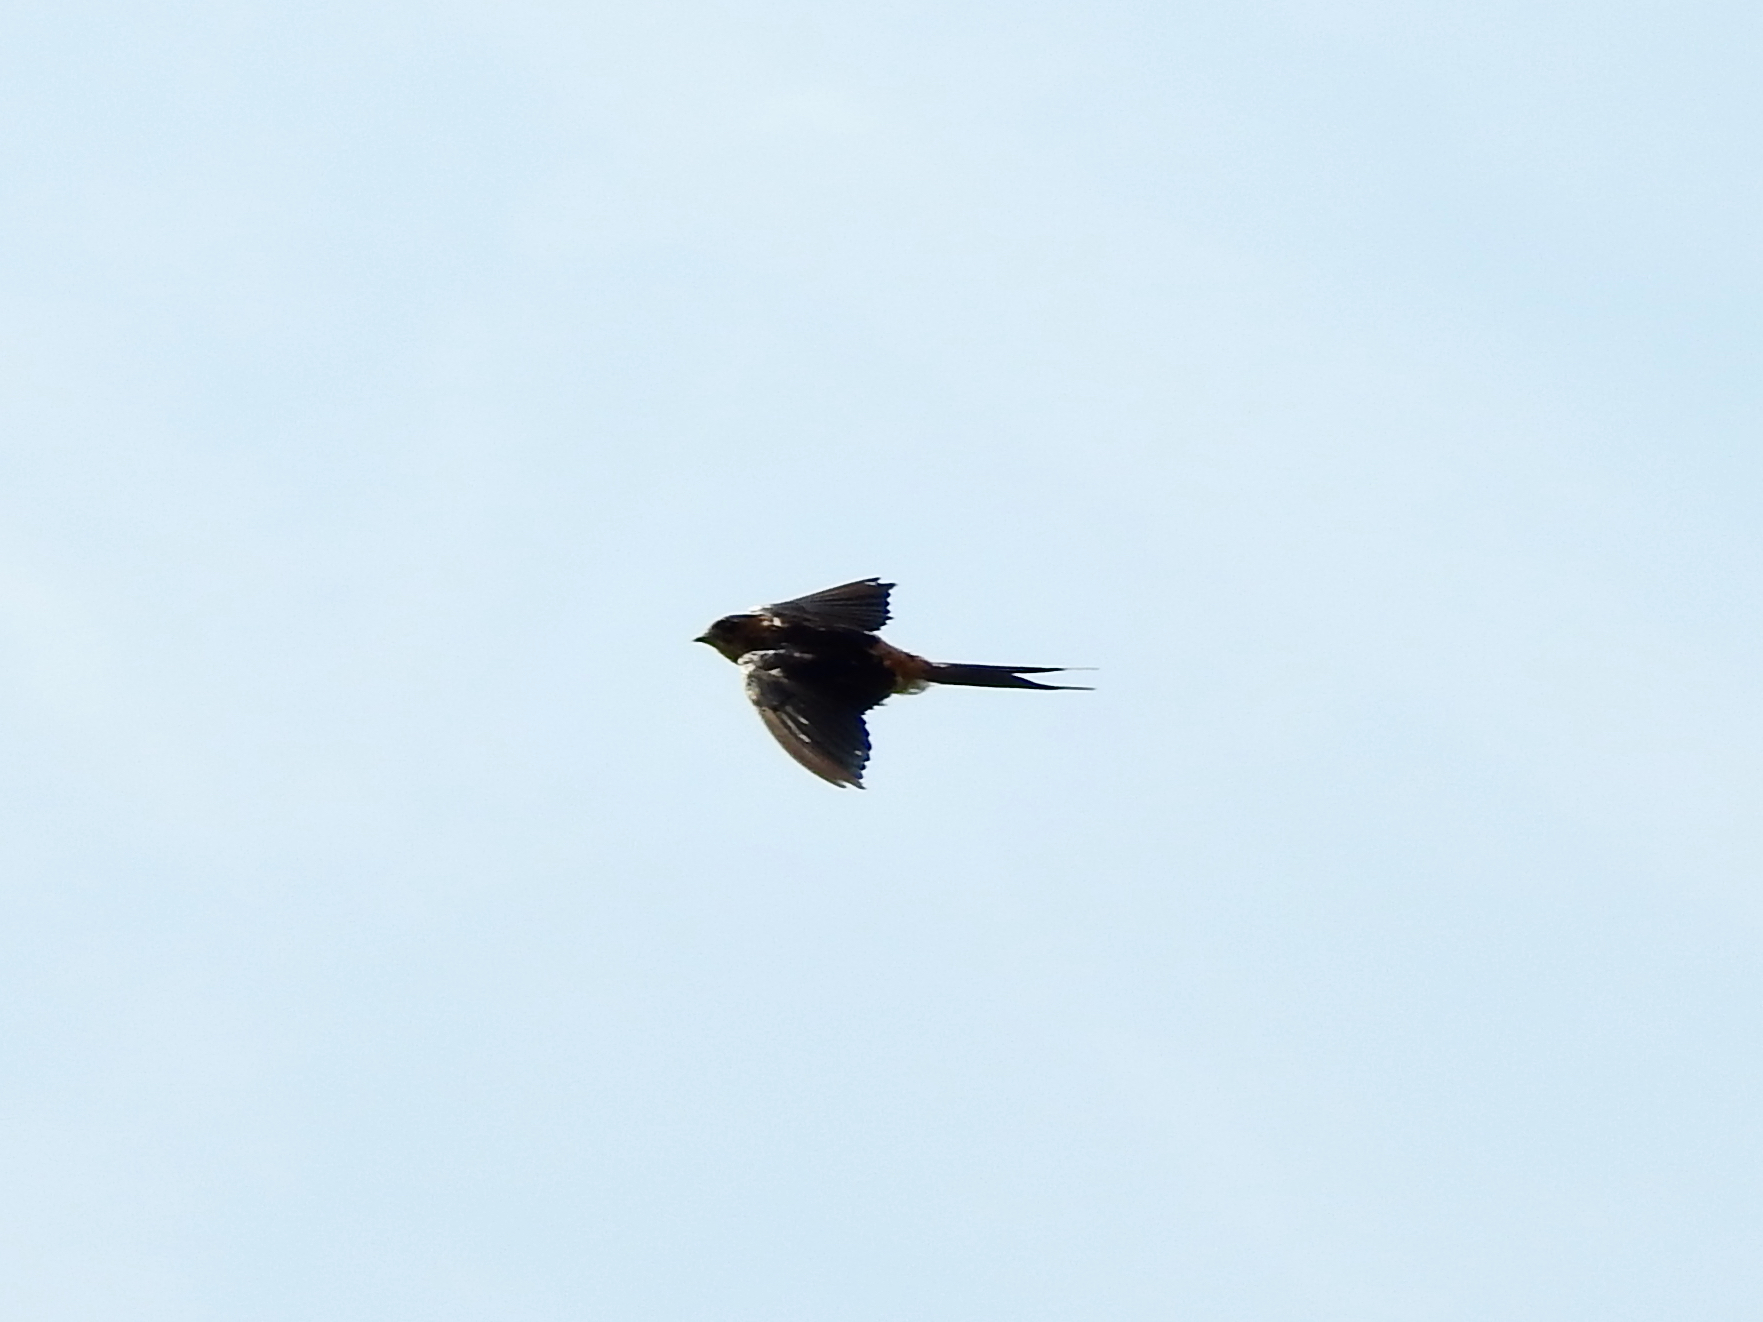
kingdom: Animalia
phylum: Chordata
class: Aves
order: Passeriformes
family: Hirundinidae
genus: Cecropis
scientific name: Cecropis daurica
